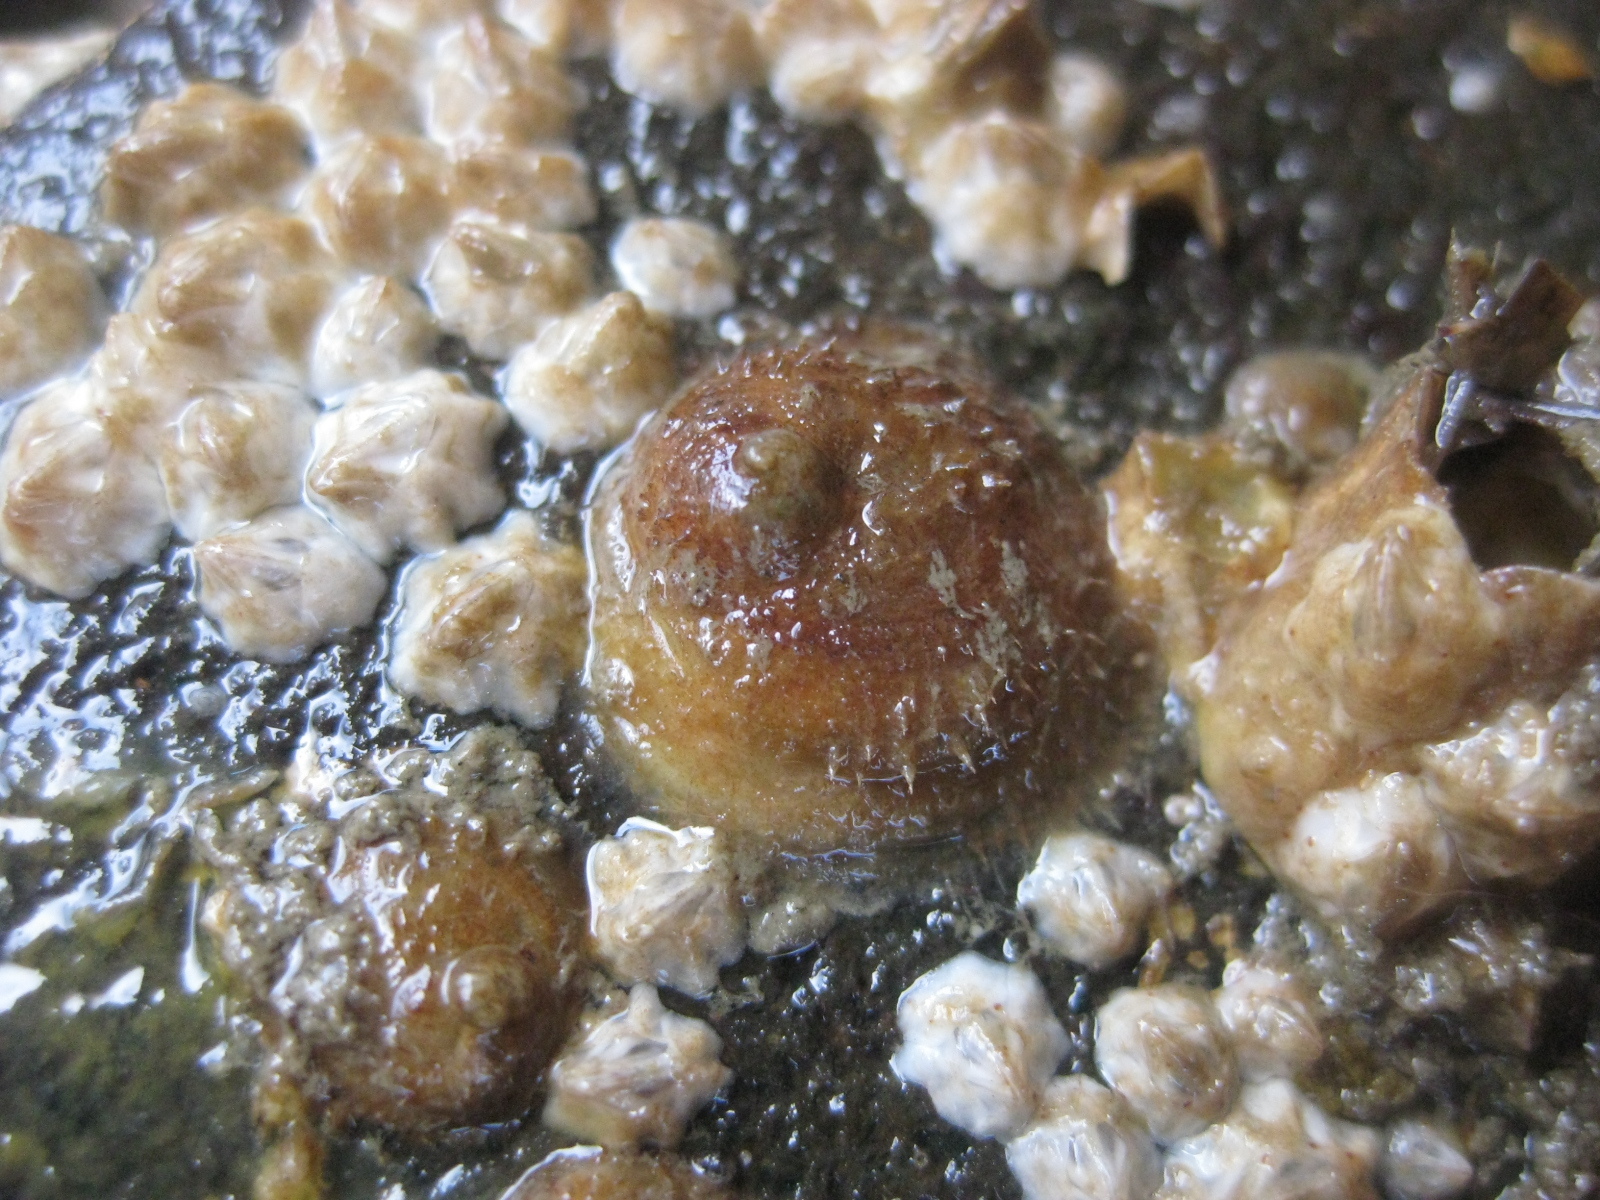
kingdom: Animalia
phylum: Mollusca
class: Gastropoda
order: Littorinimorpha
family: Calyptraeidae
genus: Sigapatella
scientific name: Sigapatella novaezelandiae
